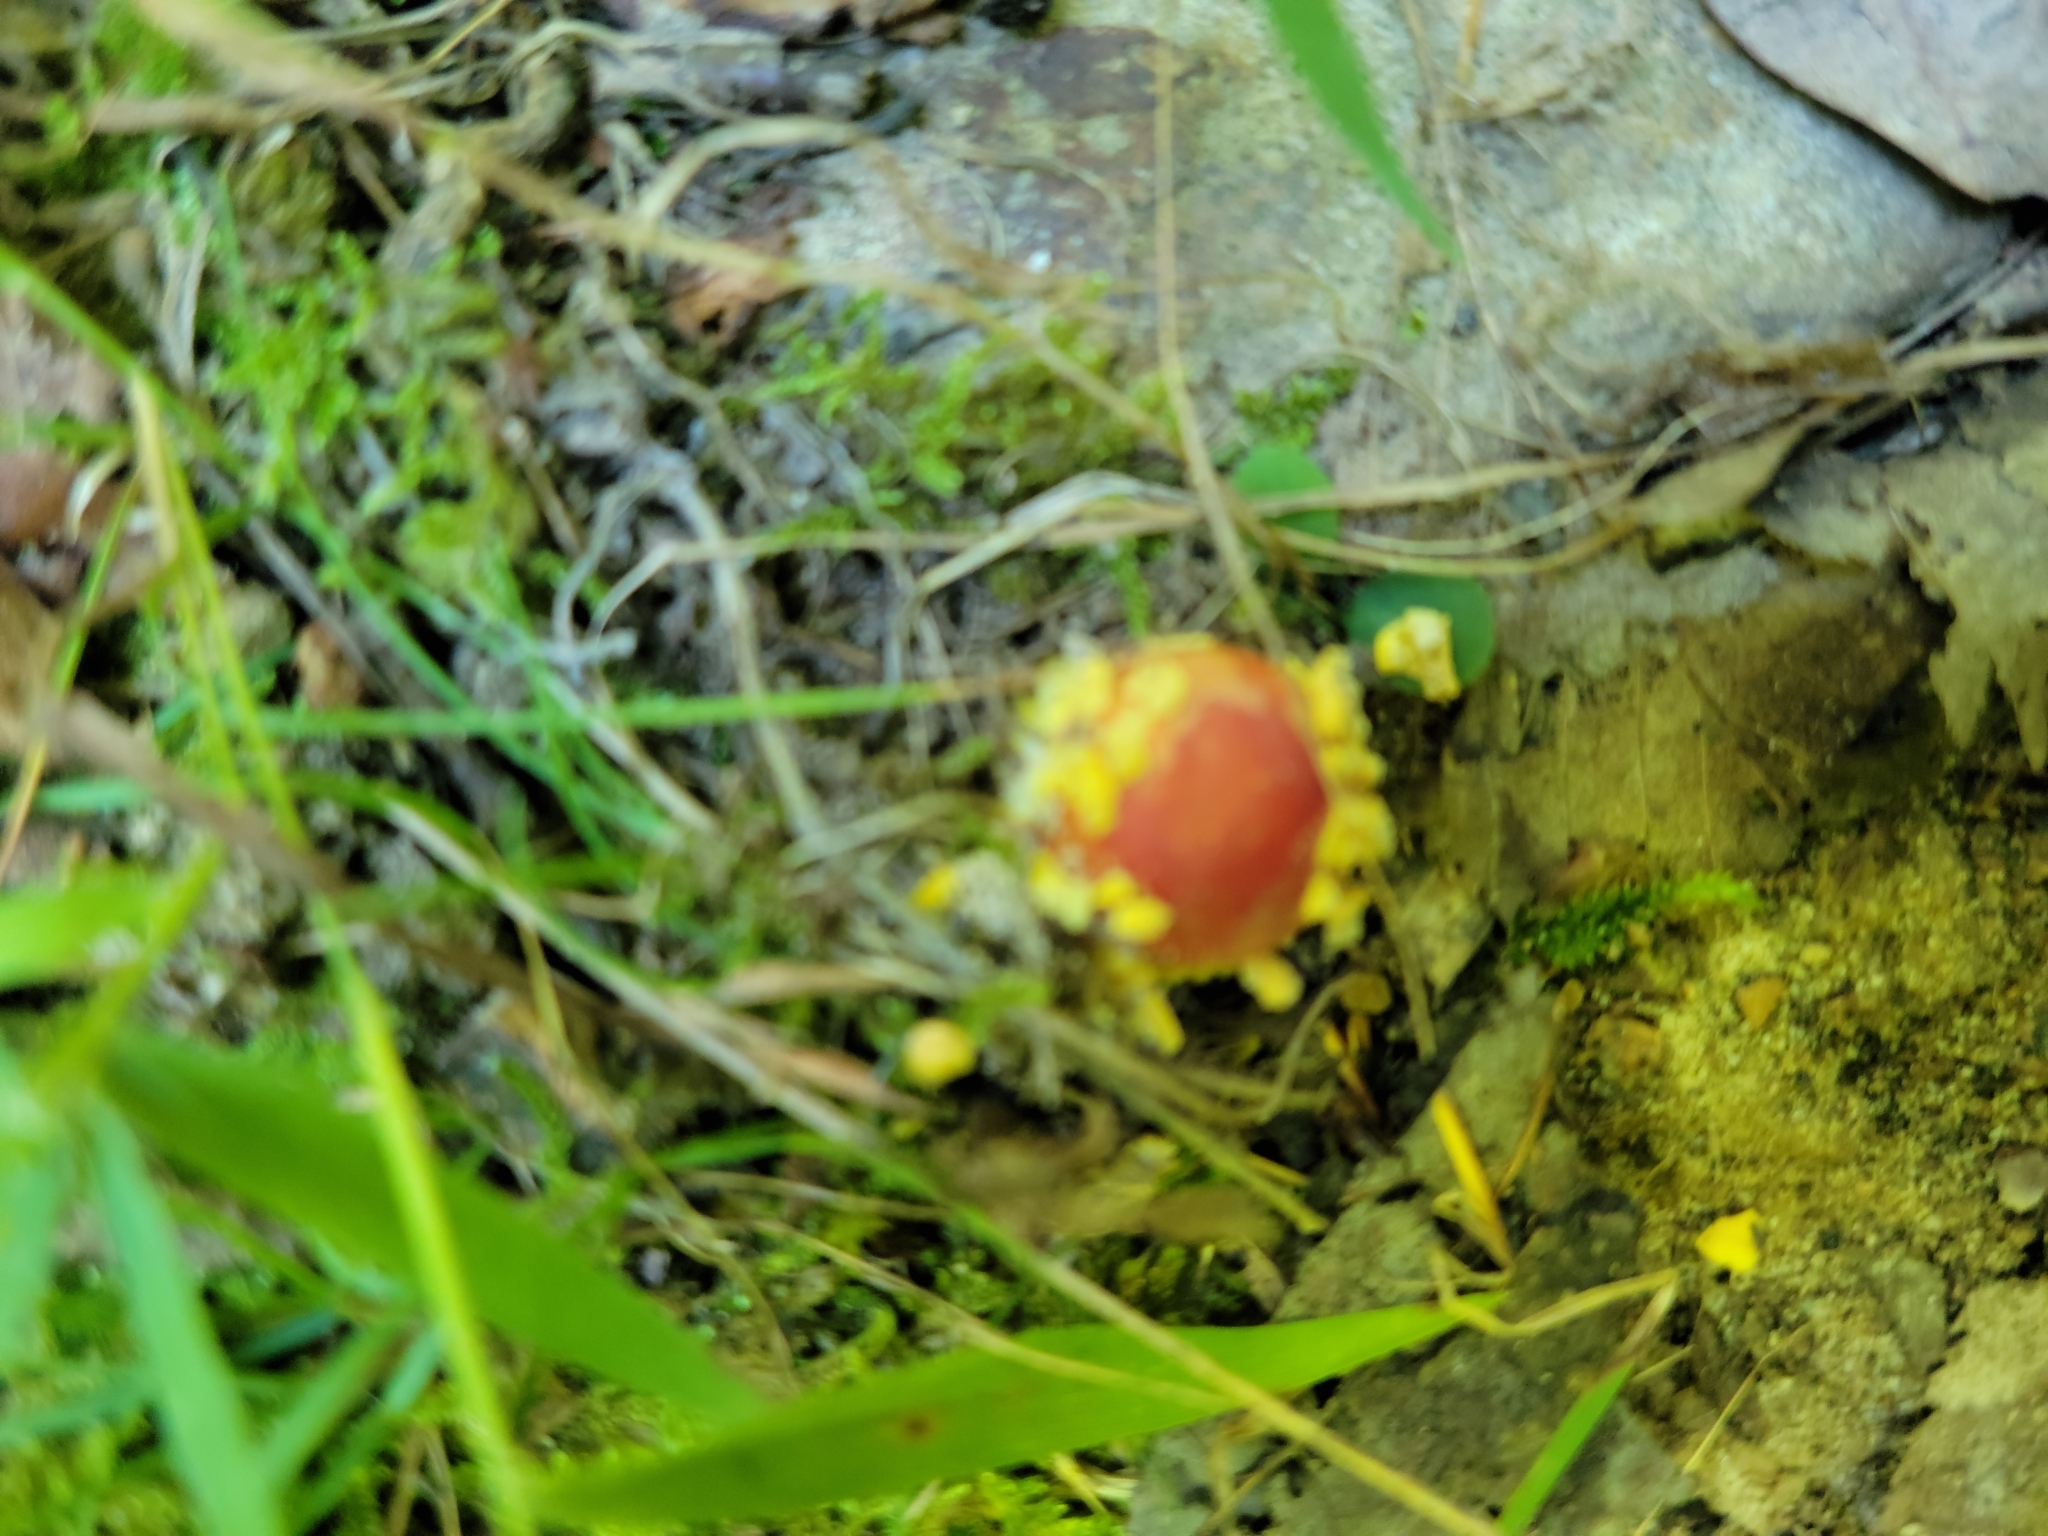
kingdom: Fungi
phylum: Basidiomycota
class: Agaricomycetes
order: Agaricales
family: Amanitaceae
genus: Amanita
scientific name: Amanita parcivolvata
